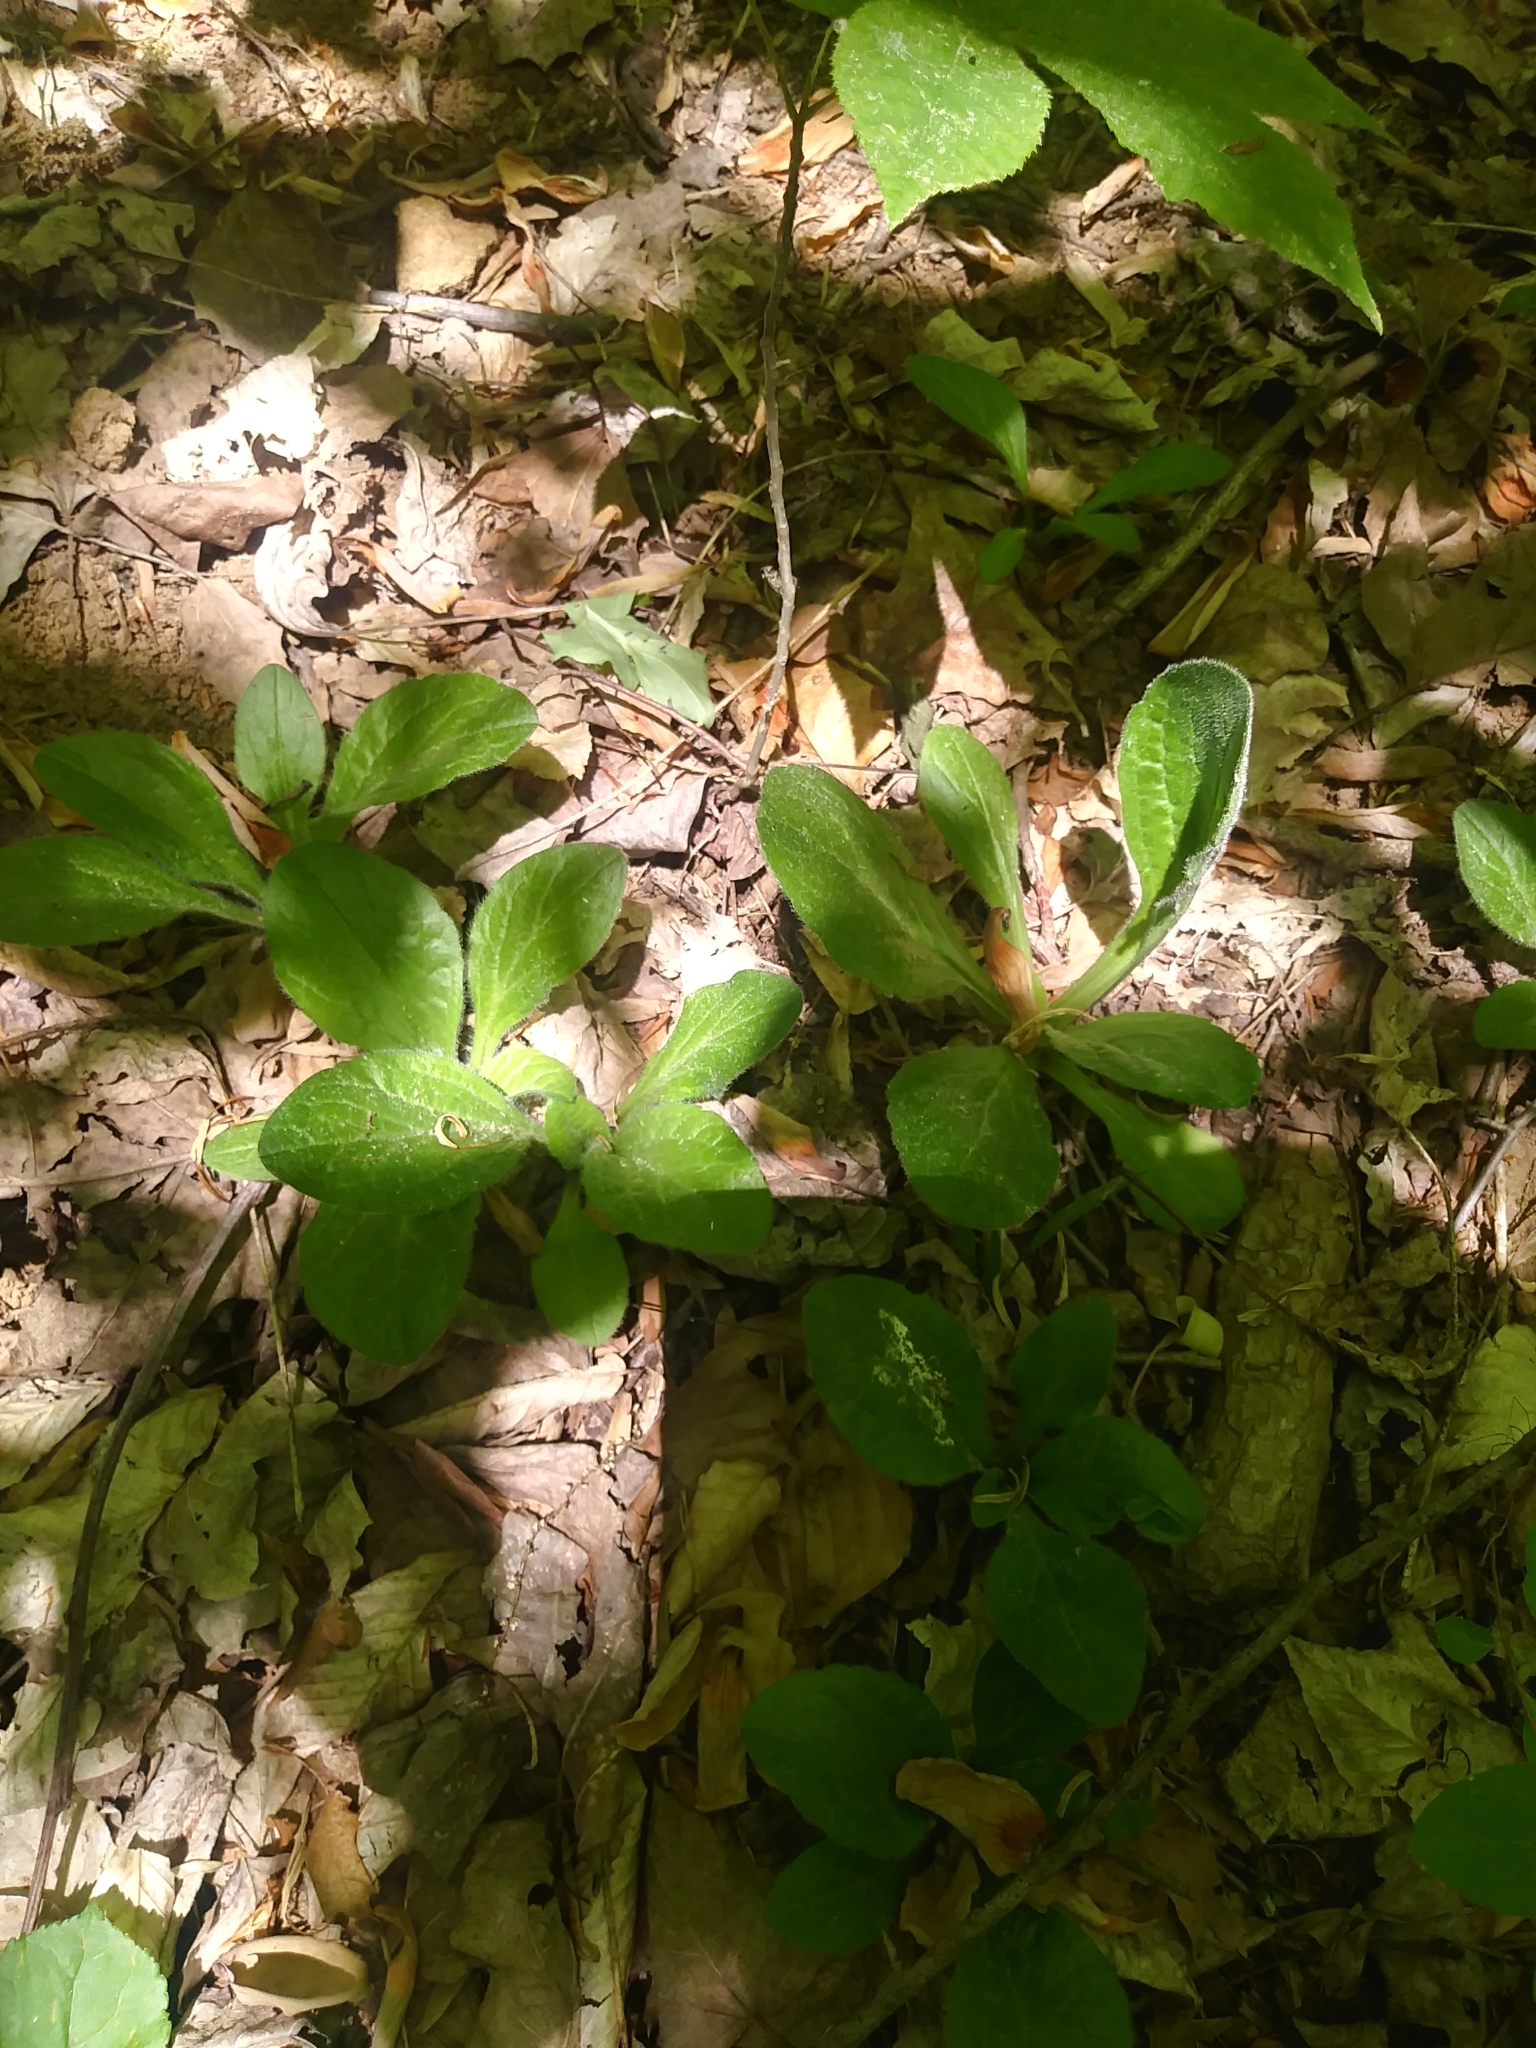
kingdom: Plantae
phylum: Tracheophyta
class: Magnoliopsida
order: Asterales
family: Asteraceae
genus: Erigeron
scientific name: Erigeron pulchellus
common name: Hairy fleabane
